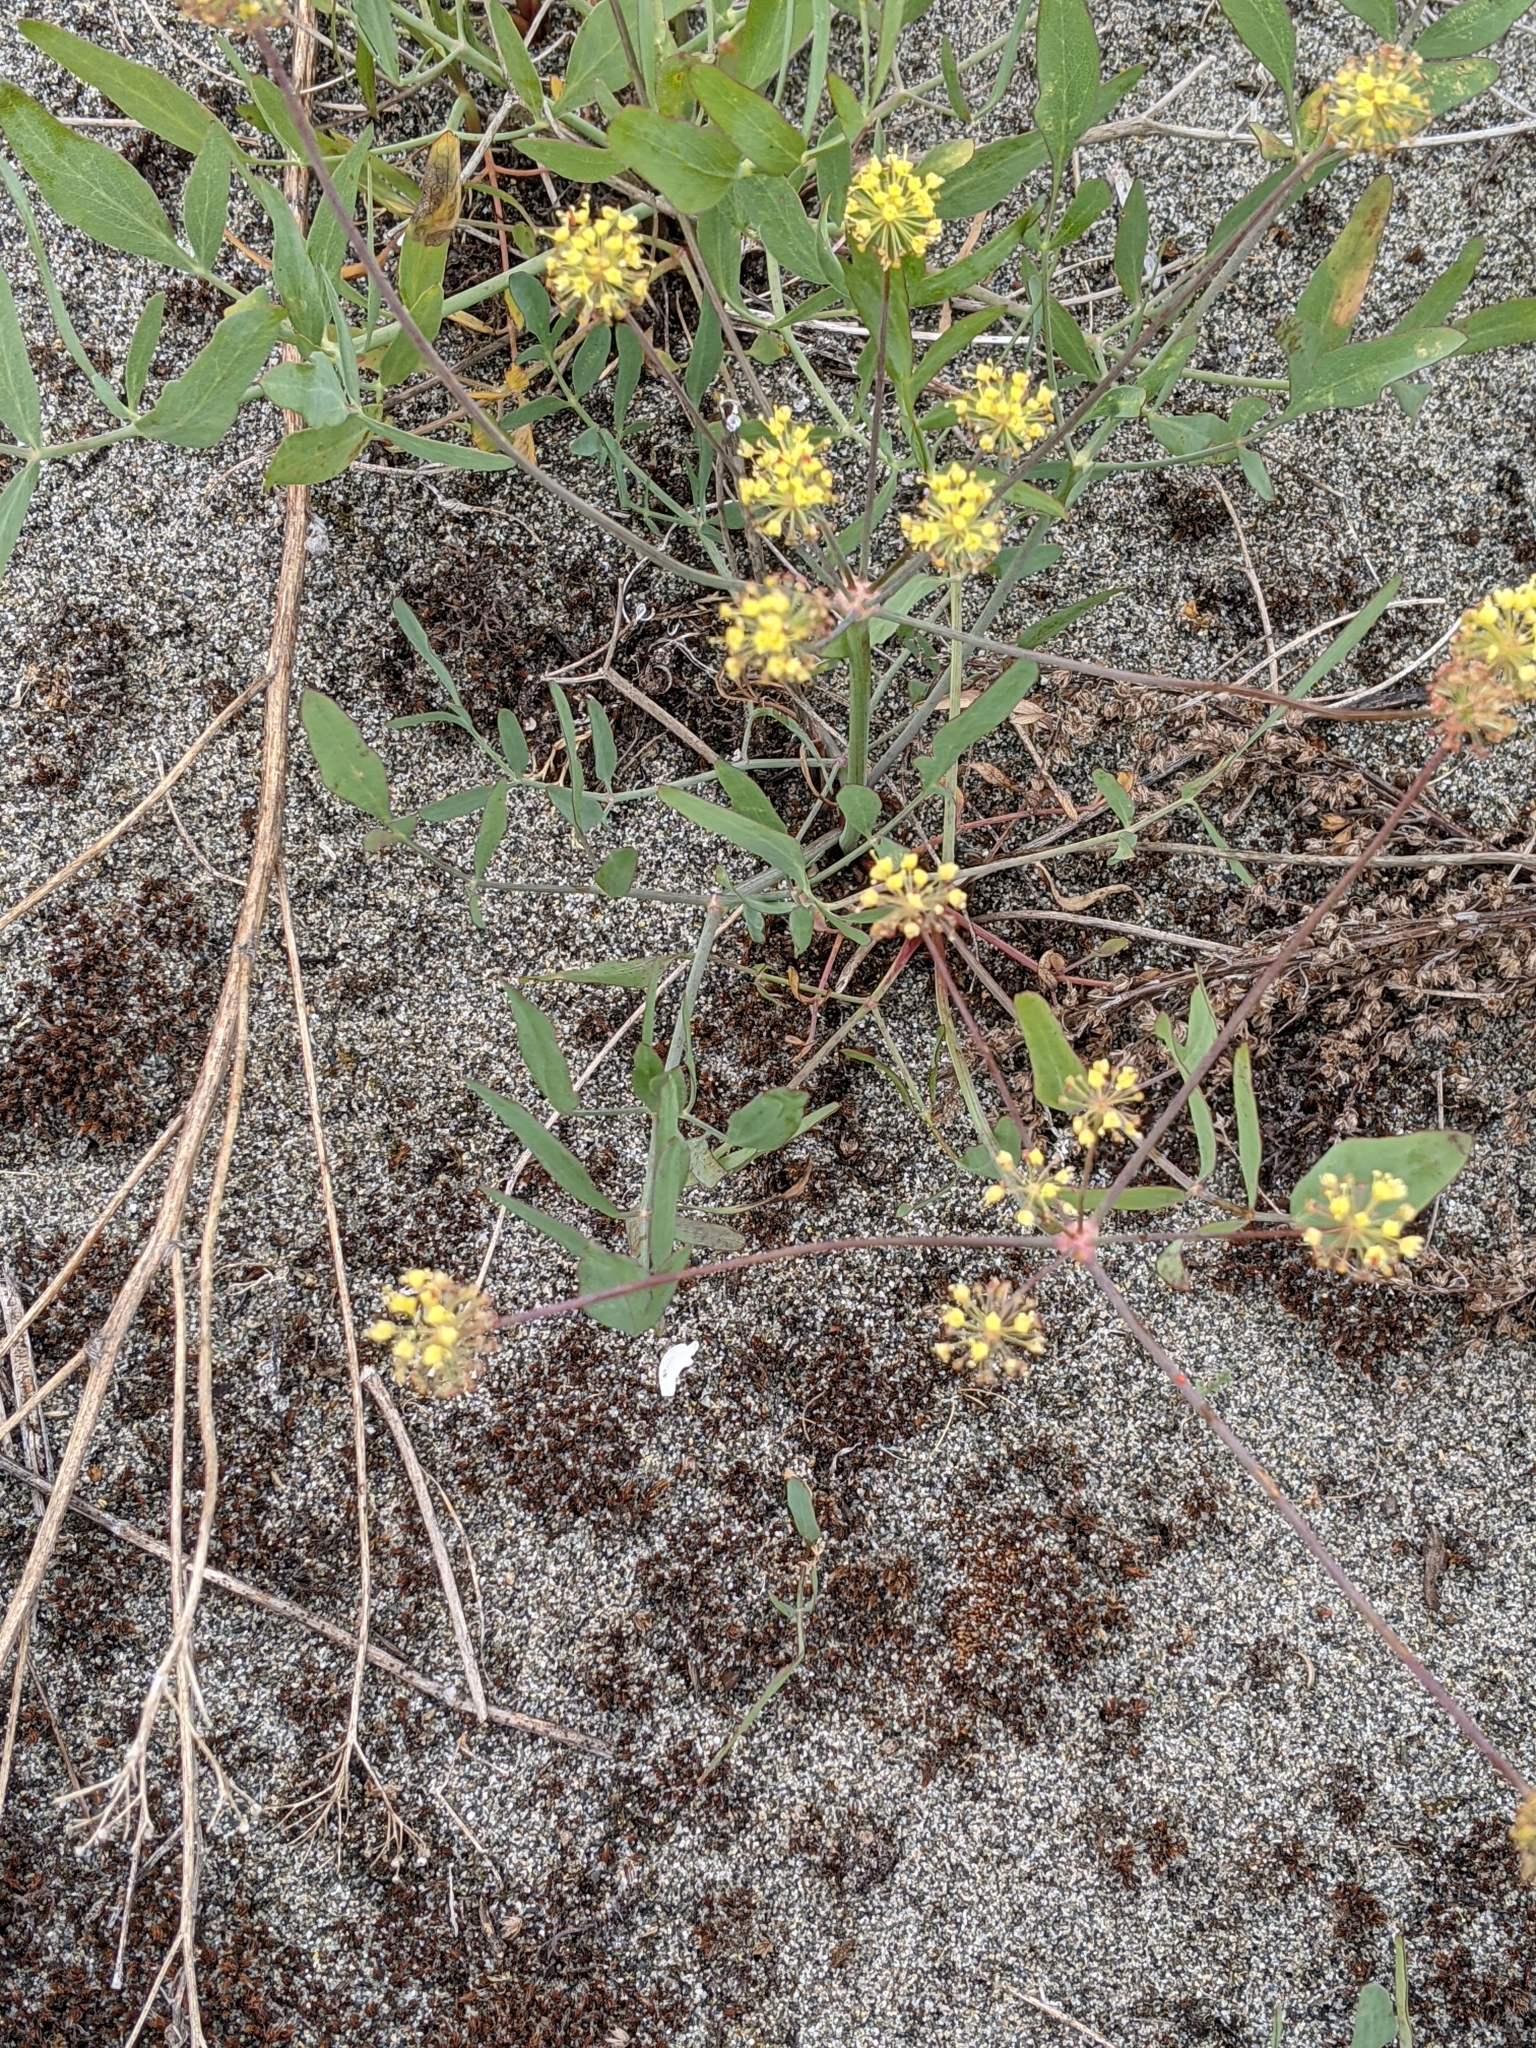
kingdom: Plantae
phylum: Tracheophyta
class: Magnoliopsida
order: Apiales
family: Apiaceae
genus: Lomatium
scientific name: Lomatium nudicaule
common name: Pestle lomatium
